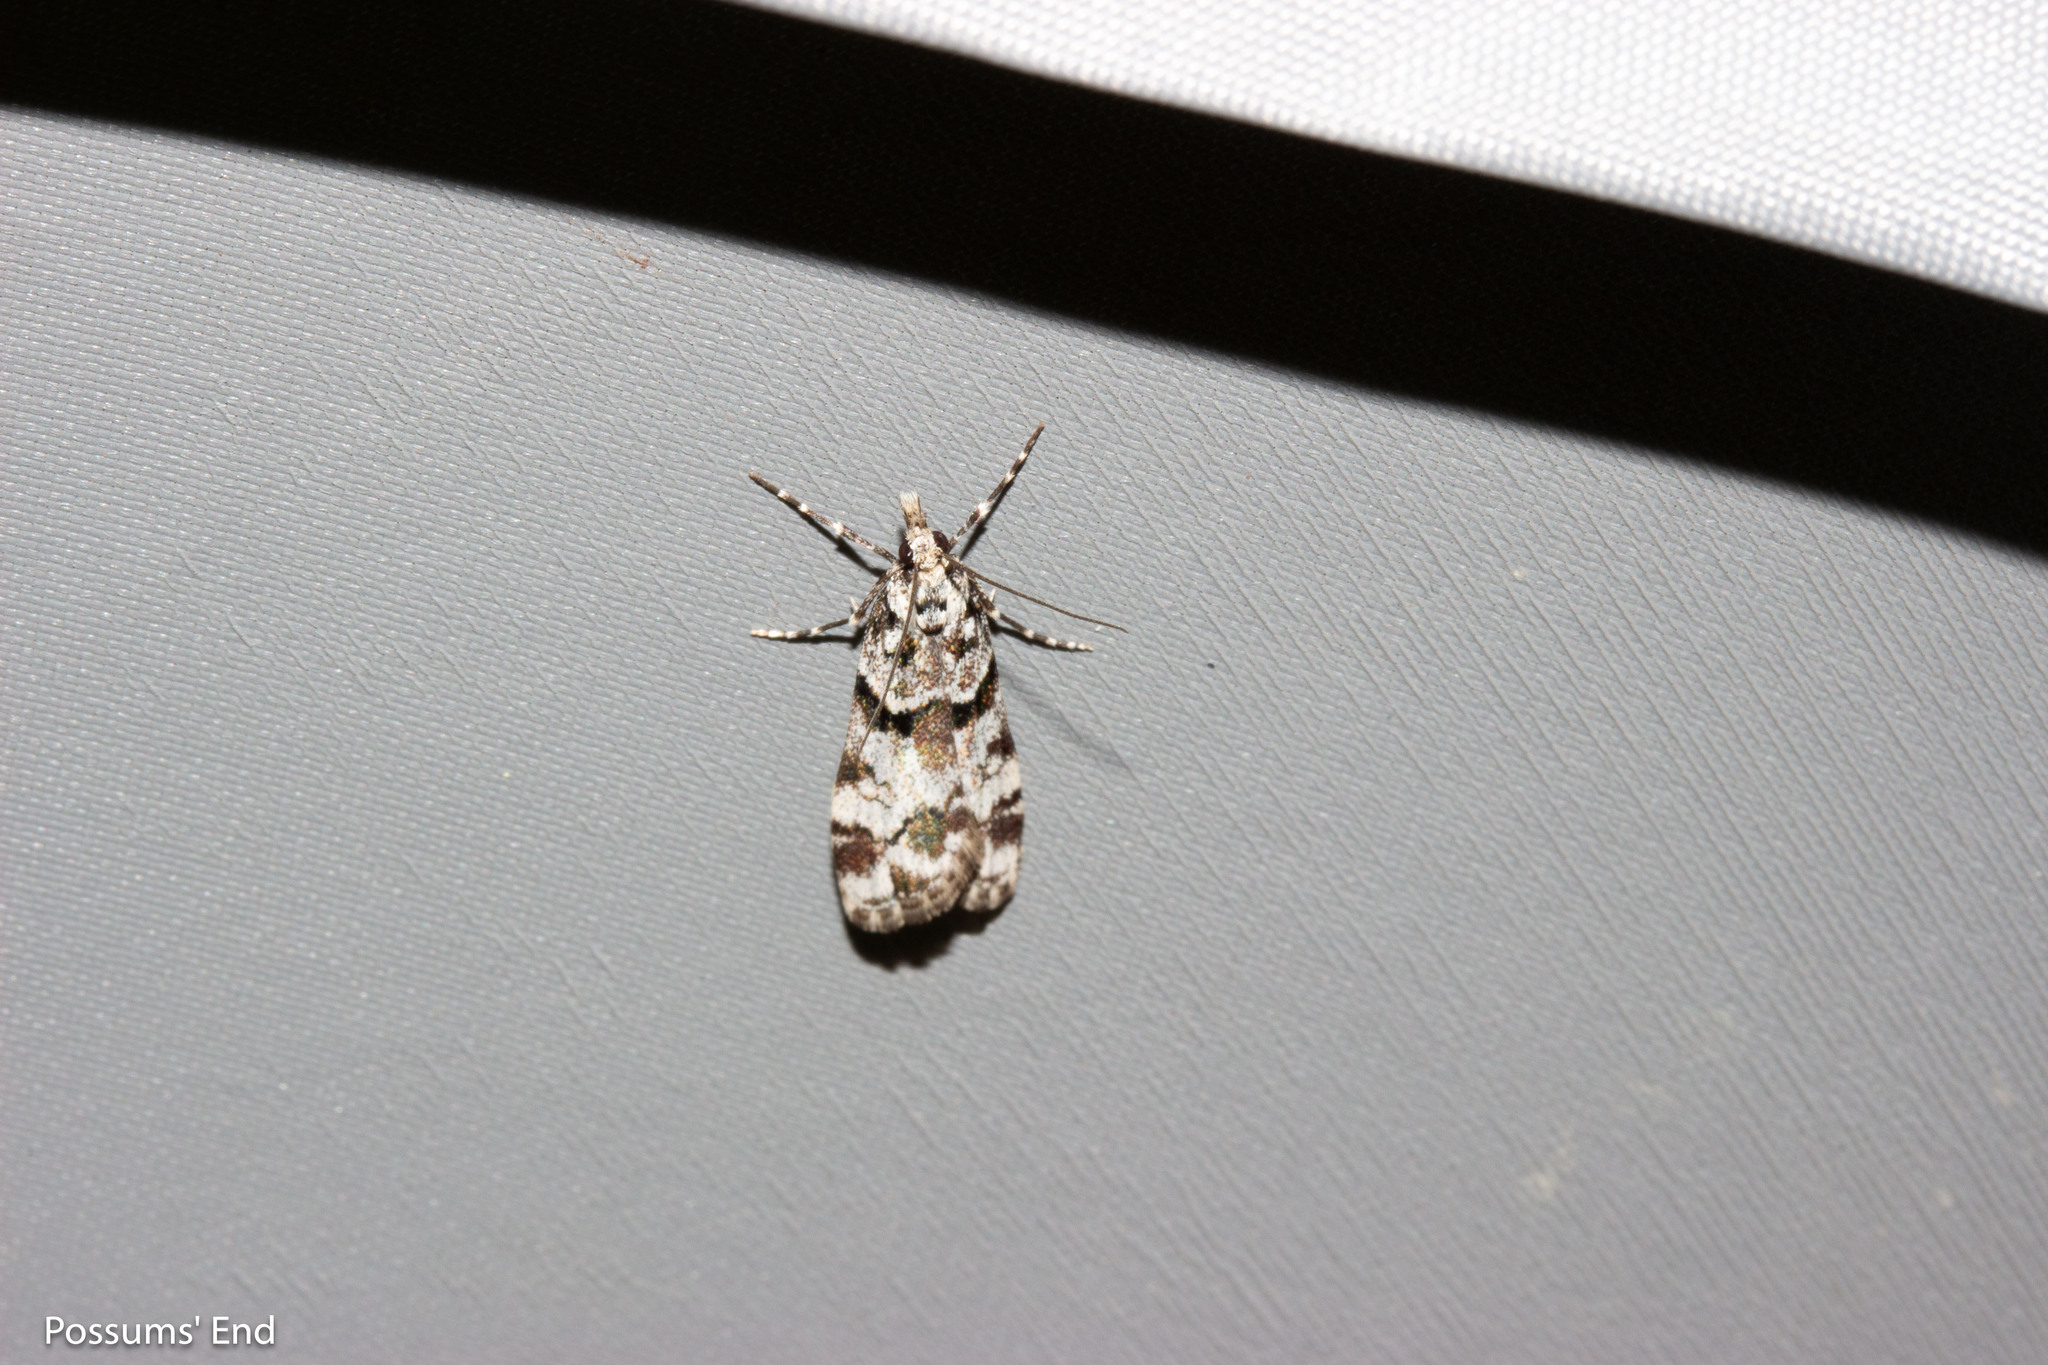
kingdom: Animalia
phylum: Arthropoda
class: Insecta
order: Lepidoptera
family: Crambidae
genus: Eudonia
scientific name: Eudonia torodes
